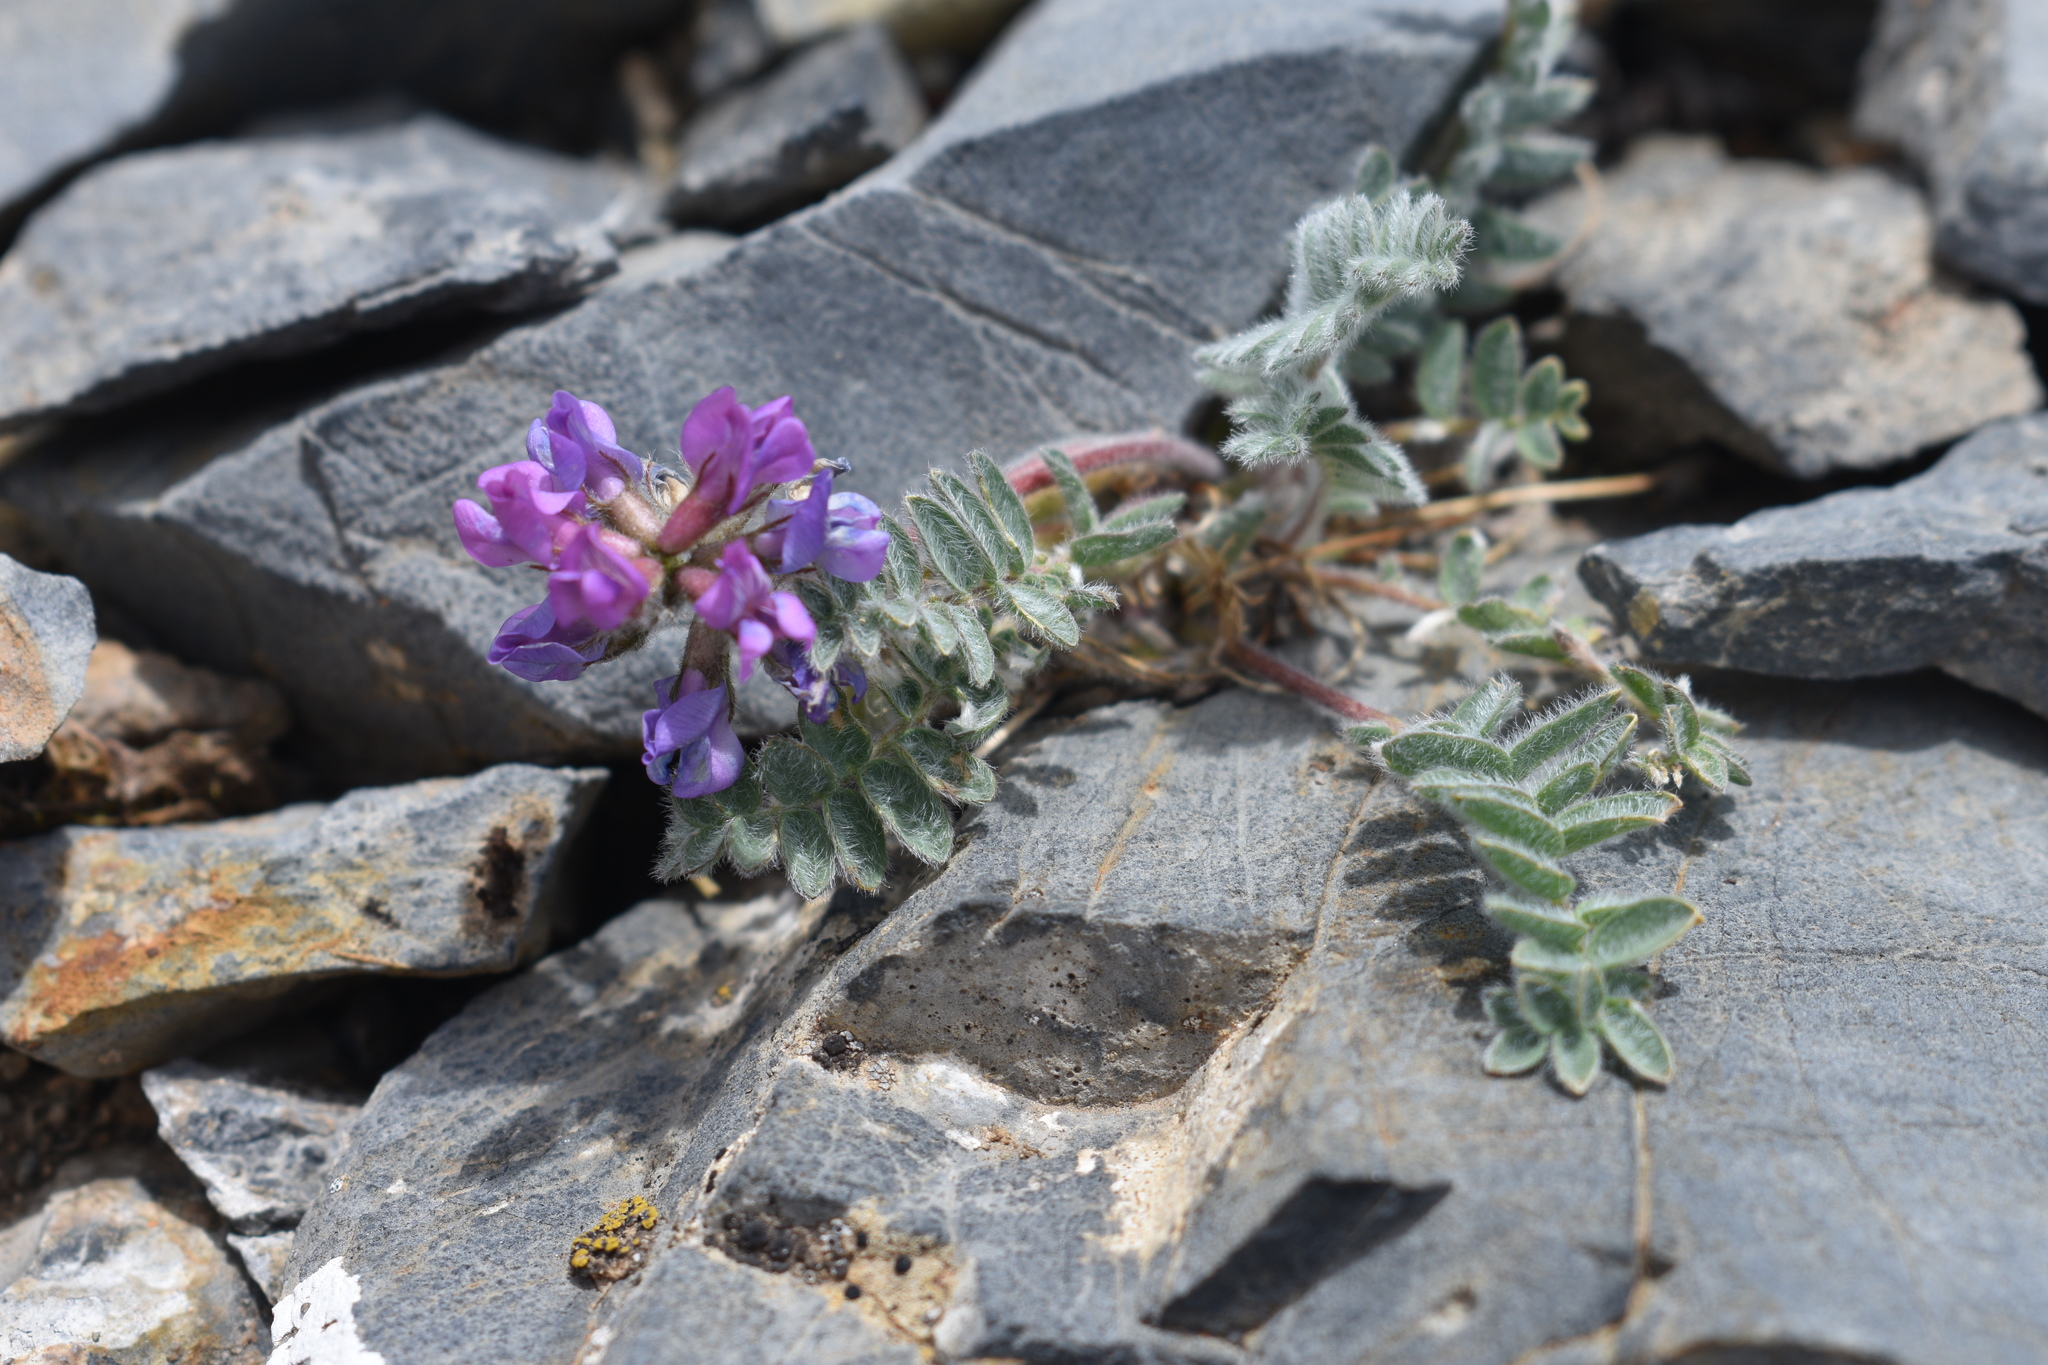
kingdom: Plantae
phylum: Tracheophyta
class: Magnoliopsida
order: Fabales
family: Fabaceae
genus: Oxytropis
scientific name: Oxytropis deflexa
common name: Stemmed oxytrope
